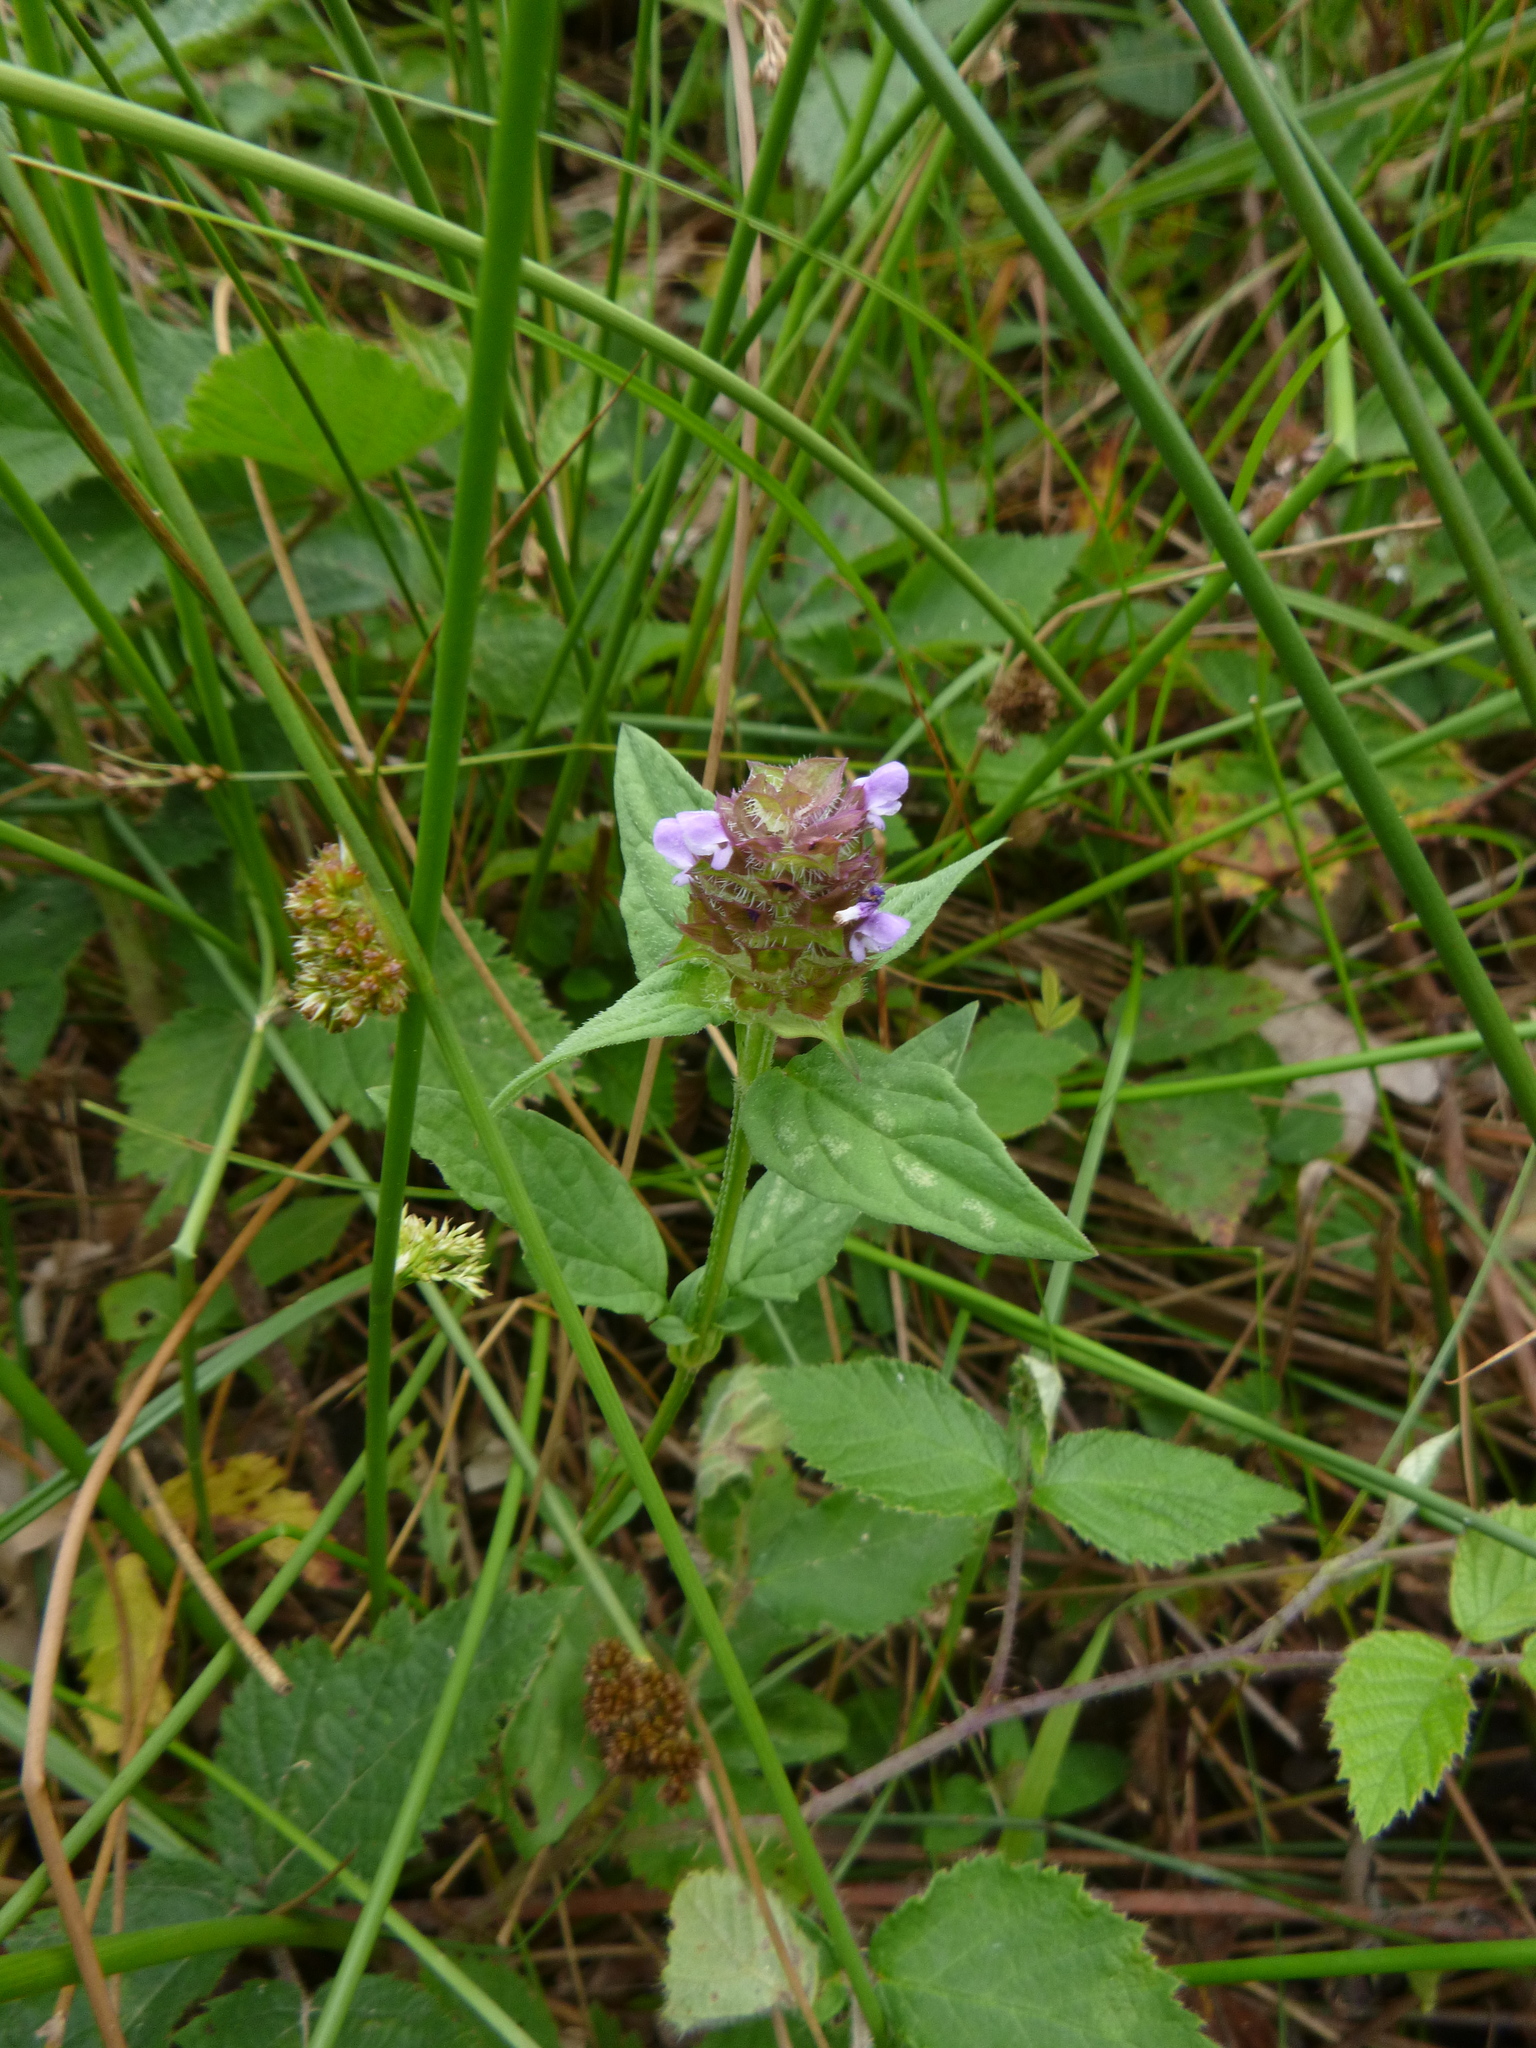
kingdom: Plantae
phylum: Tracheophyta
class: Magnoliopsida
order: Lamiales
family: Lamiaceae
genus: Prunella
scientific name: Prunella vulgaris
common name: Heal-all
